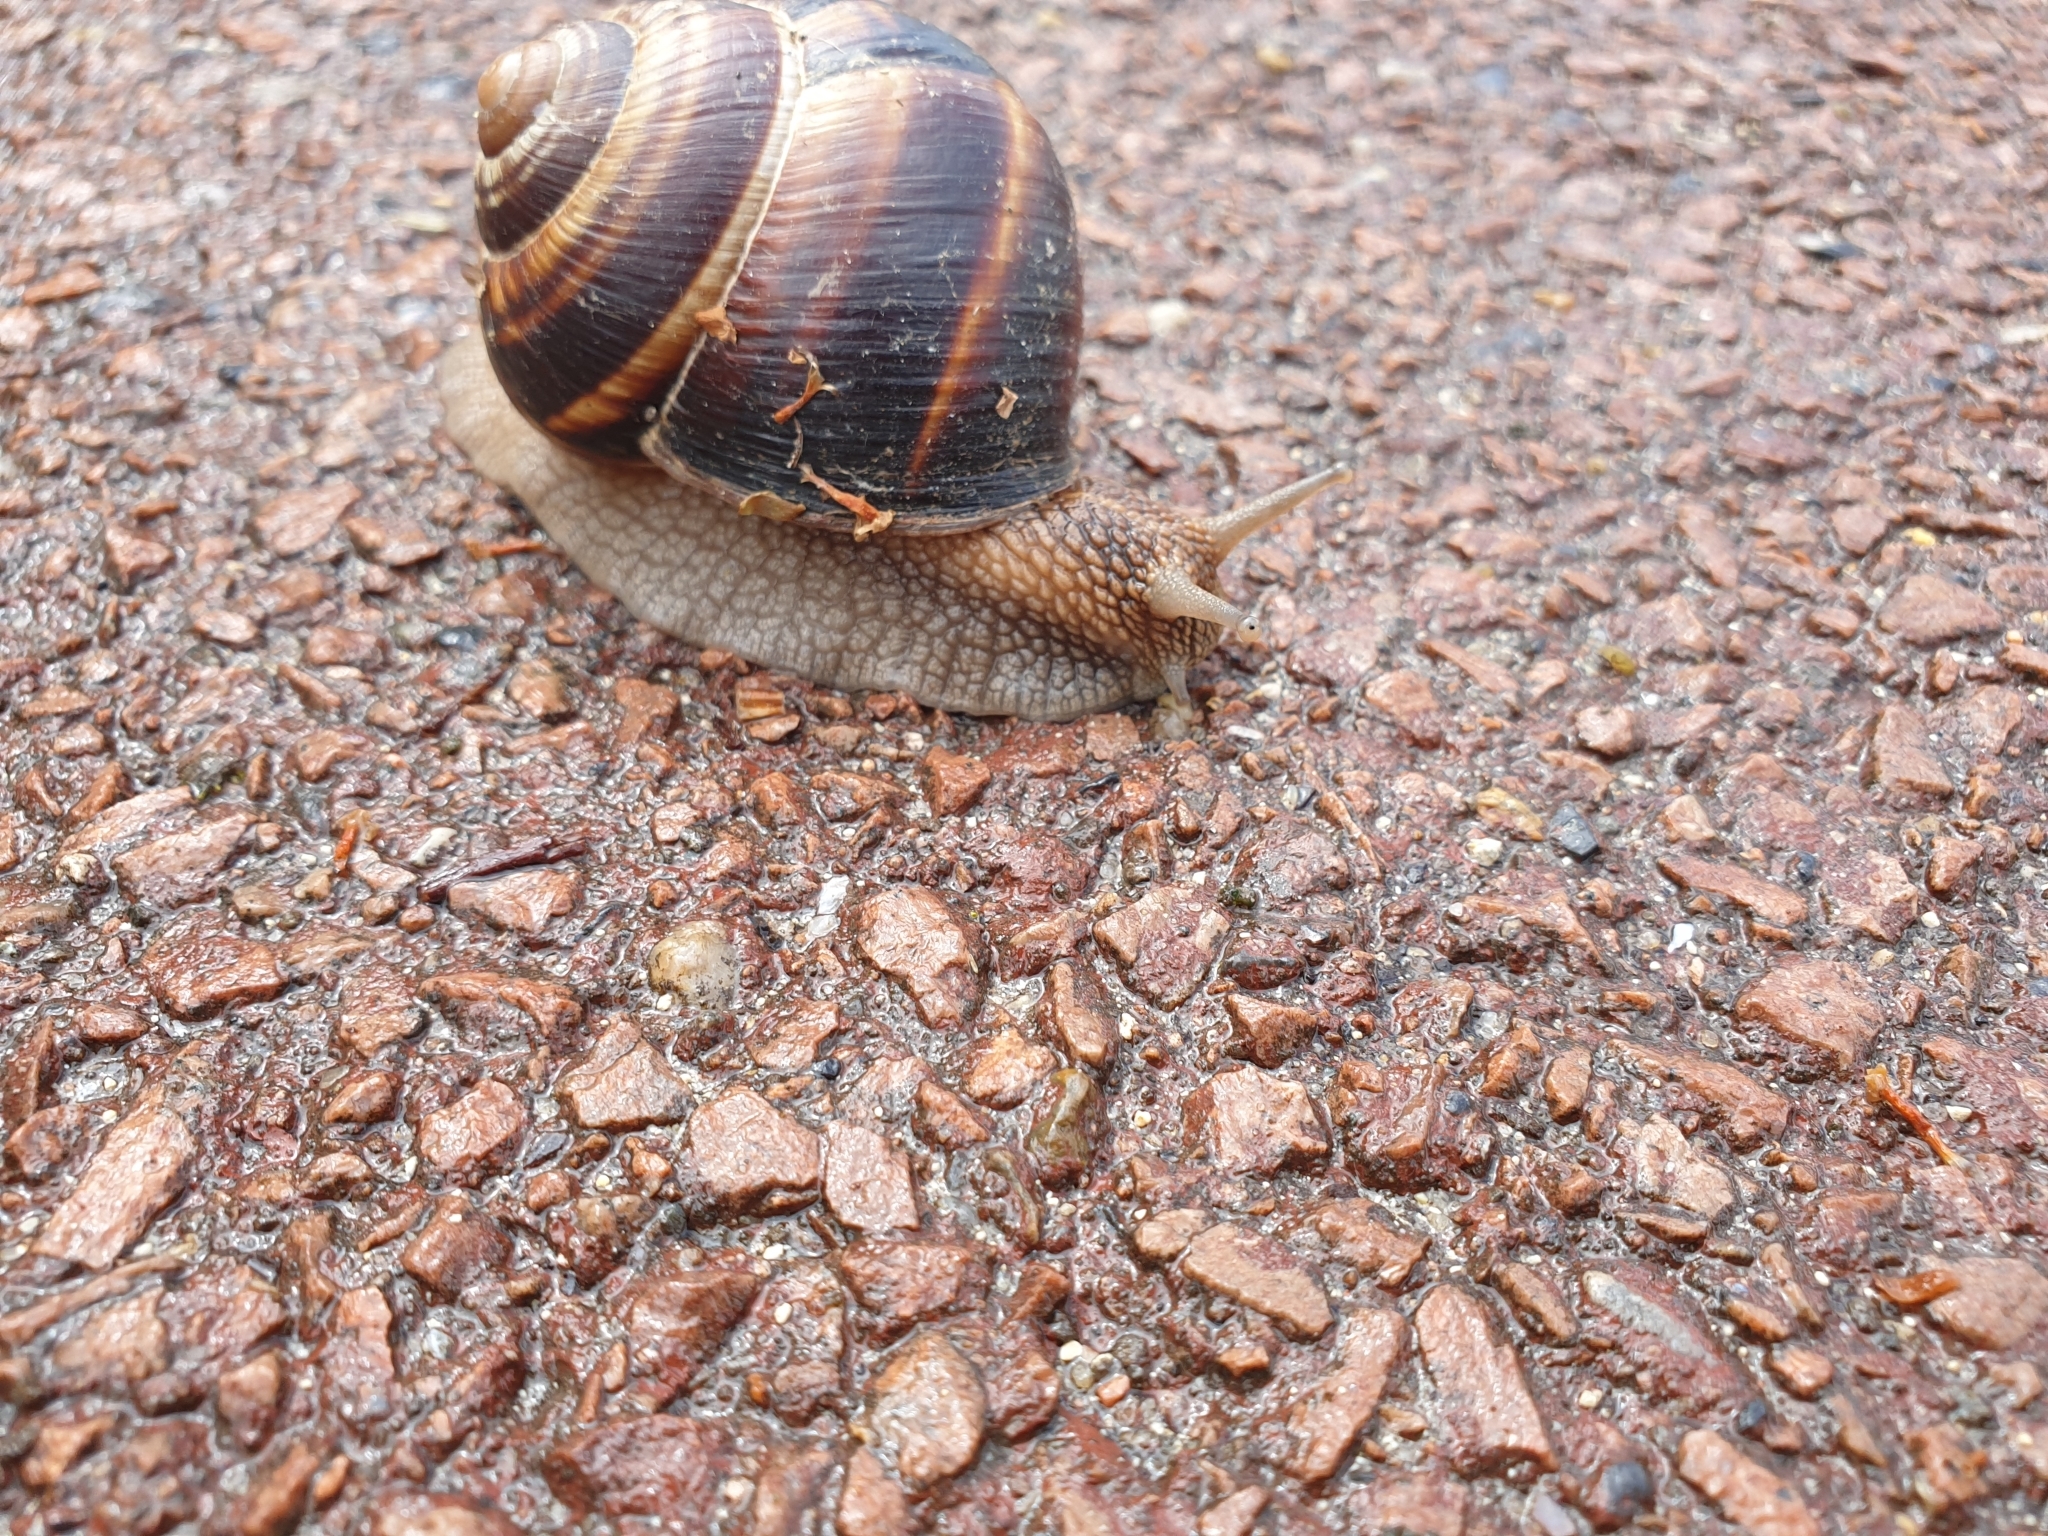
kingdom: Animalia
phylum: Mollusca
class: Gastropoda
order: Stylommatophora
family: Helicidae
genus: Helix
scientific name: Helix lucorum
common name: Turkish snail
